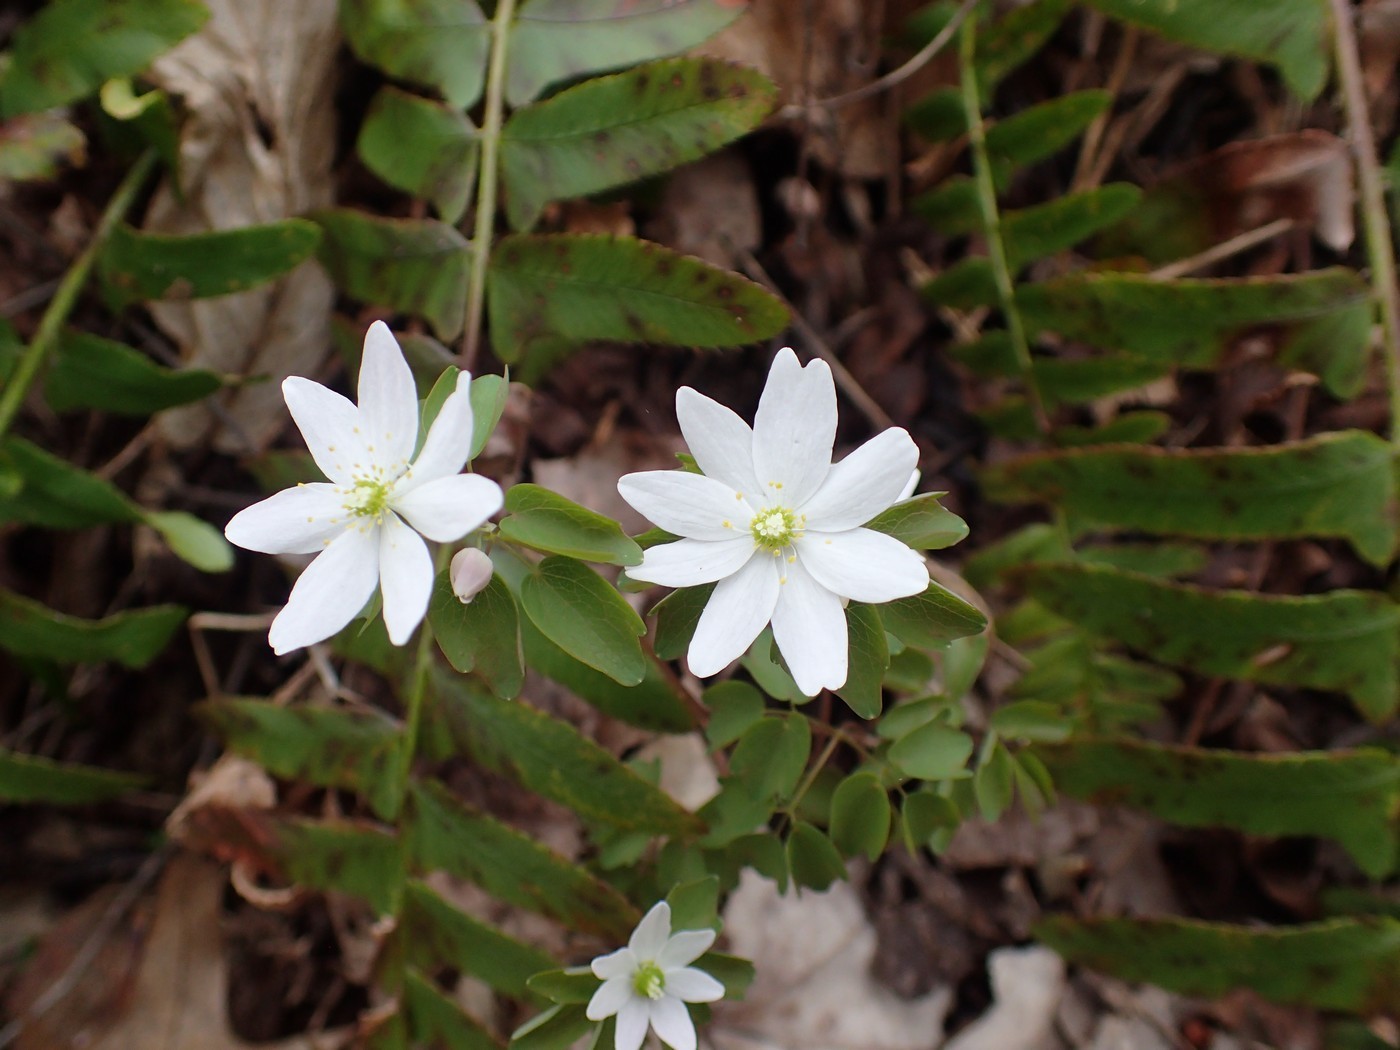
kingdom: Plantae
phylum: Tracheophyta
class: Magnoliopsida
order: Ranunculales
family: Ranunculaceae
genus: Thalictrum
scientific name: Thalictrum thalictroides
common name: Rue-anemone
